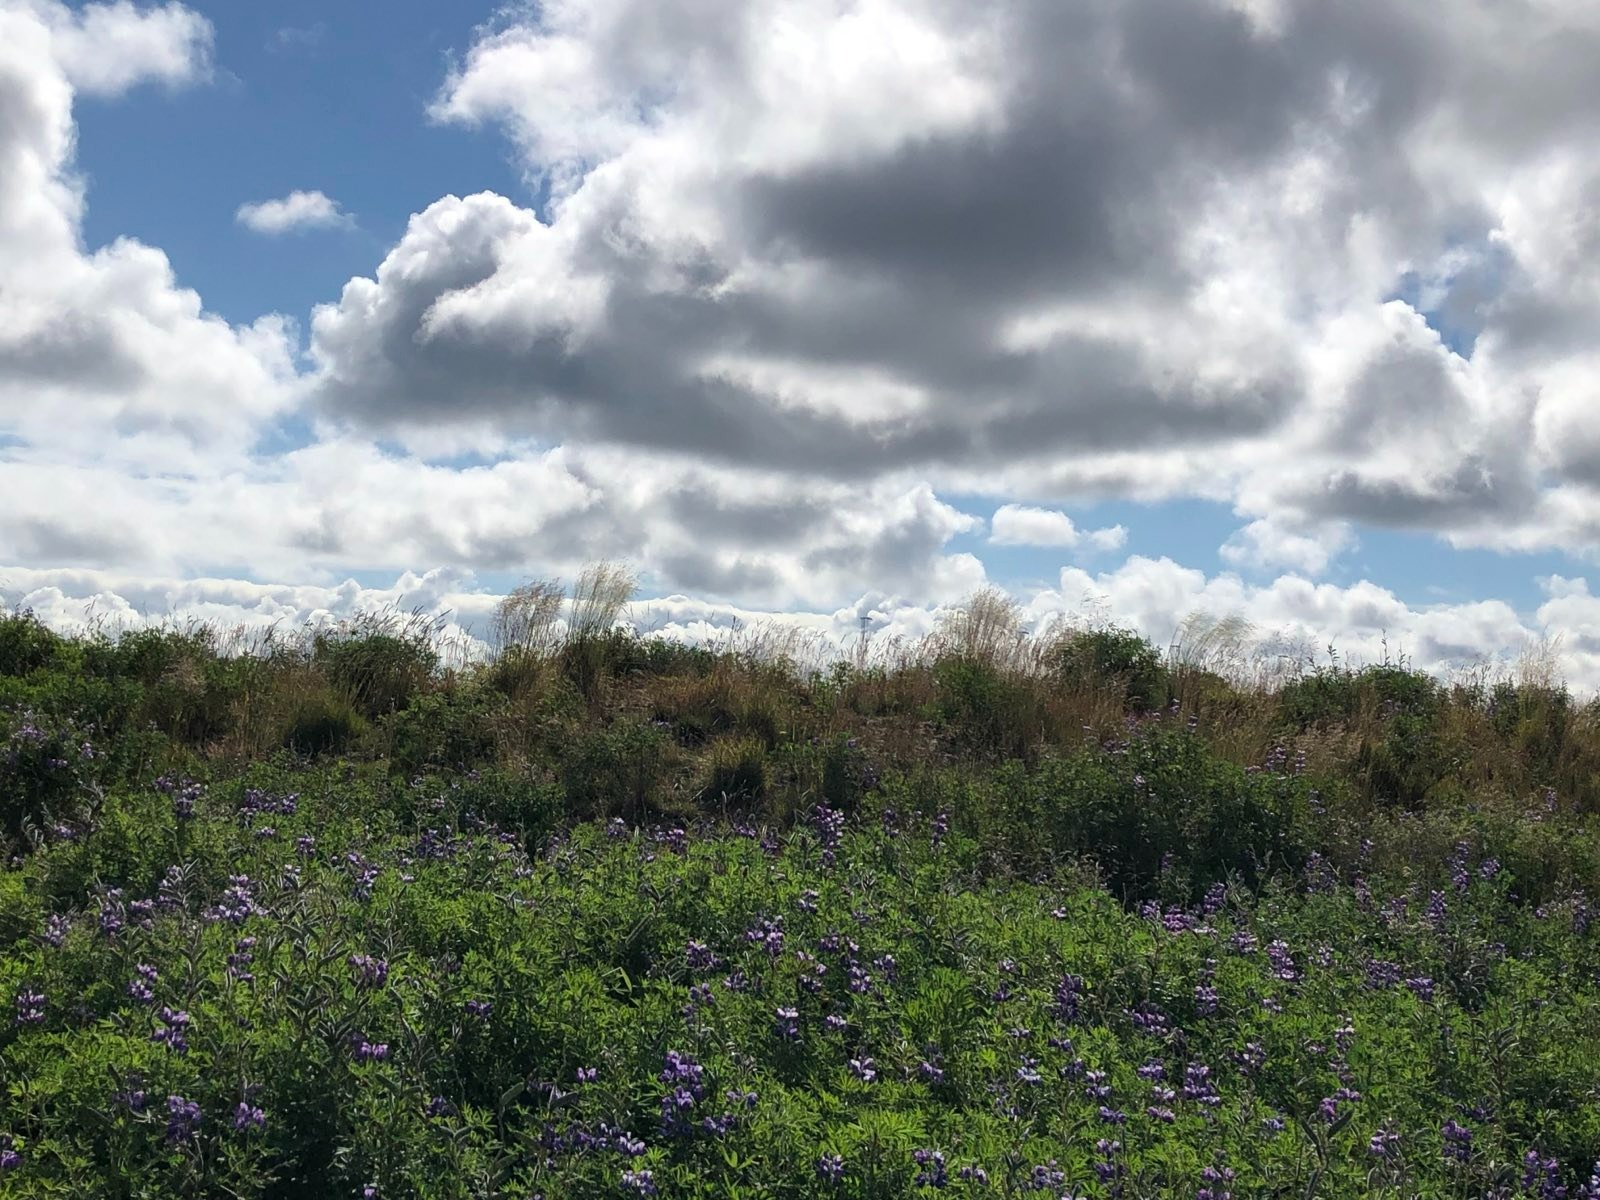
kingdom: Plantae
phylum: Tracheophyta
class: Magnoliopsida
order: Fabales
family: Fabaceae
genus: Lupinus
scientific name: Lupinus nootkatensis
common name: Nootka lupine
